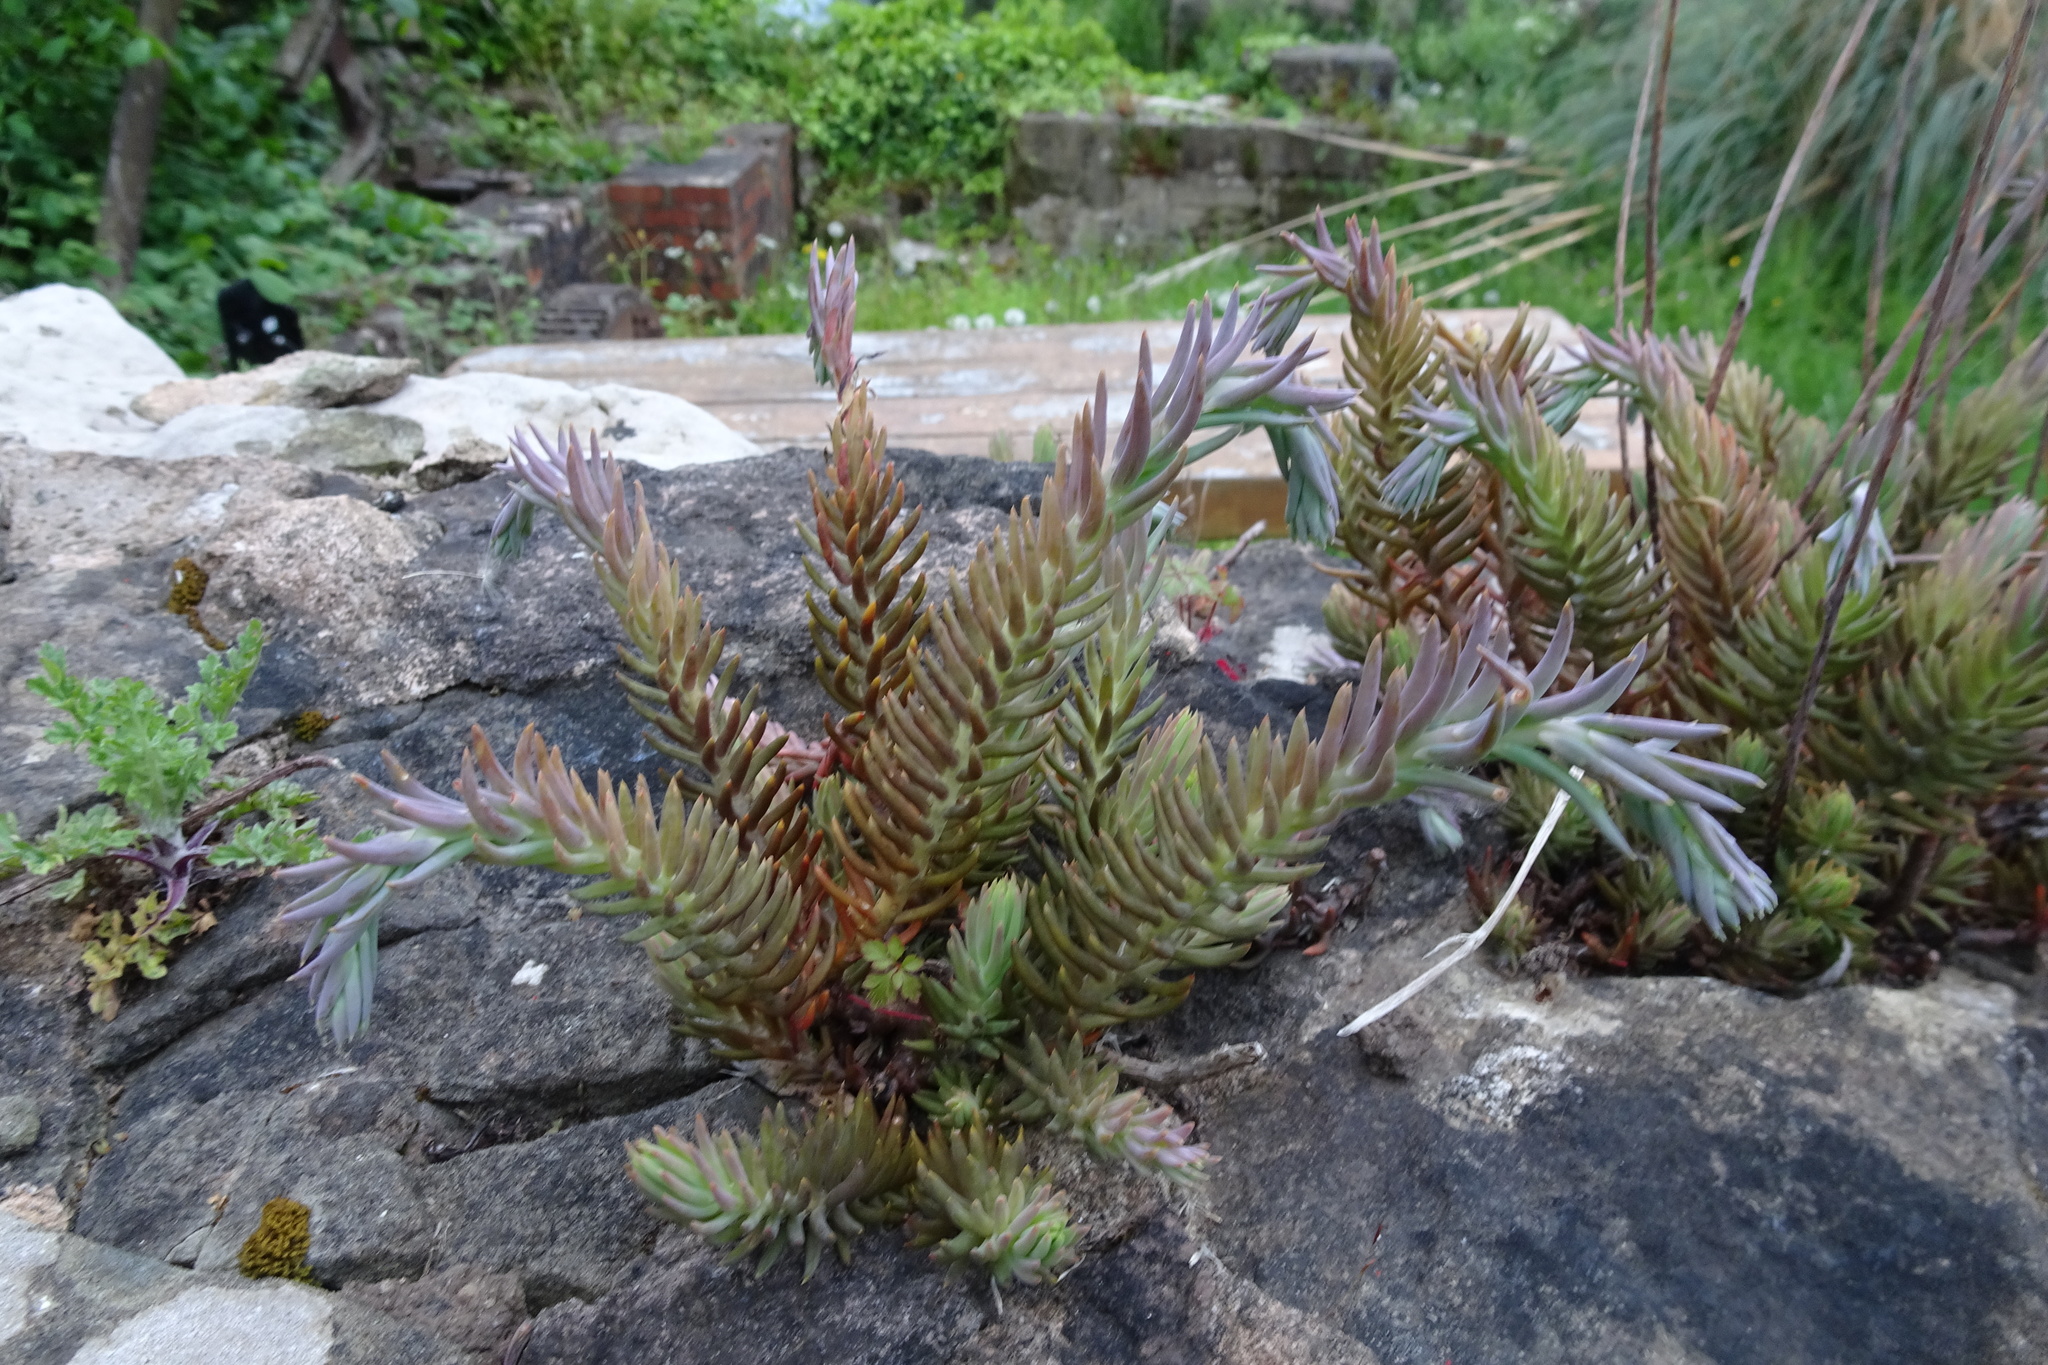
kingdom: Plantae
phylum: Tracheophyta
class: Magnoliopsida
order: Saxifragales
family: Crassulaceae
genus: Petrosedum
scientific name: Petrosedum rupestre
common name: Jenny's stonecrop
